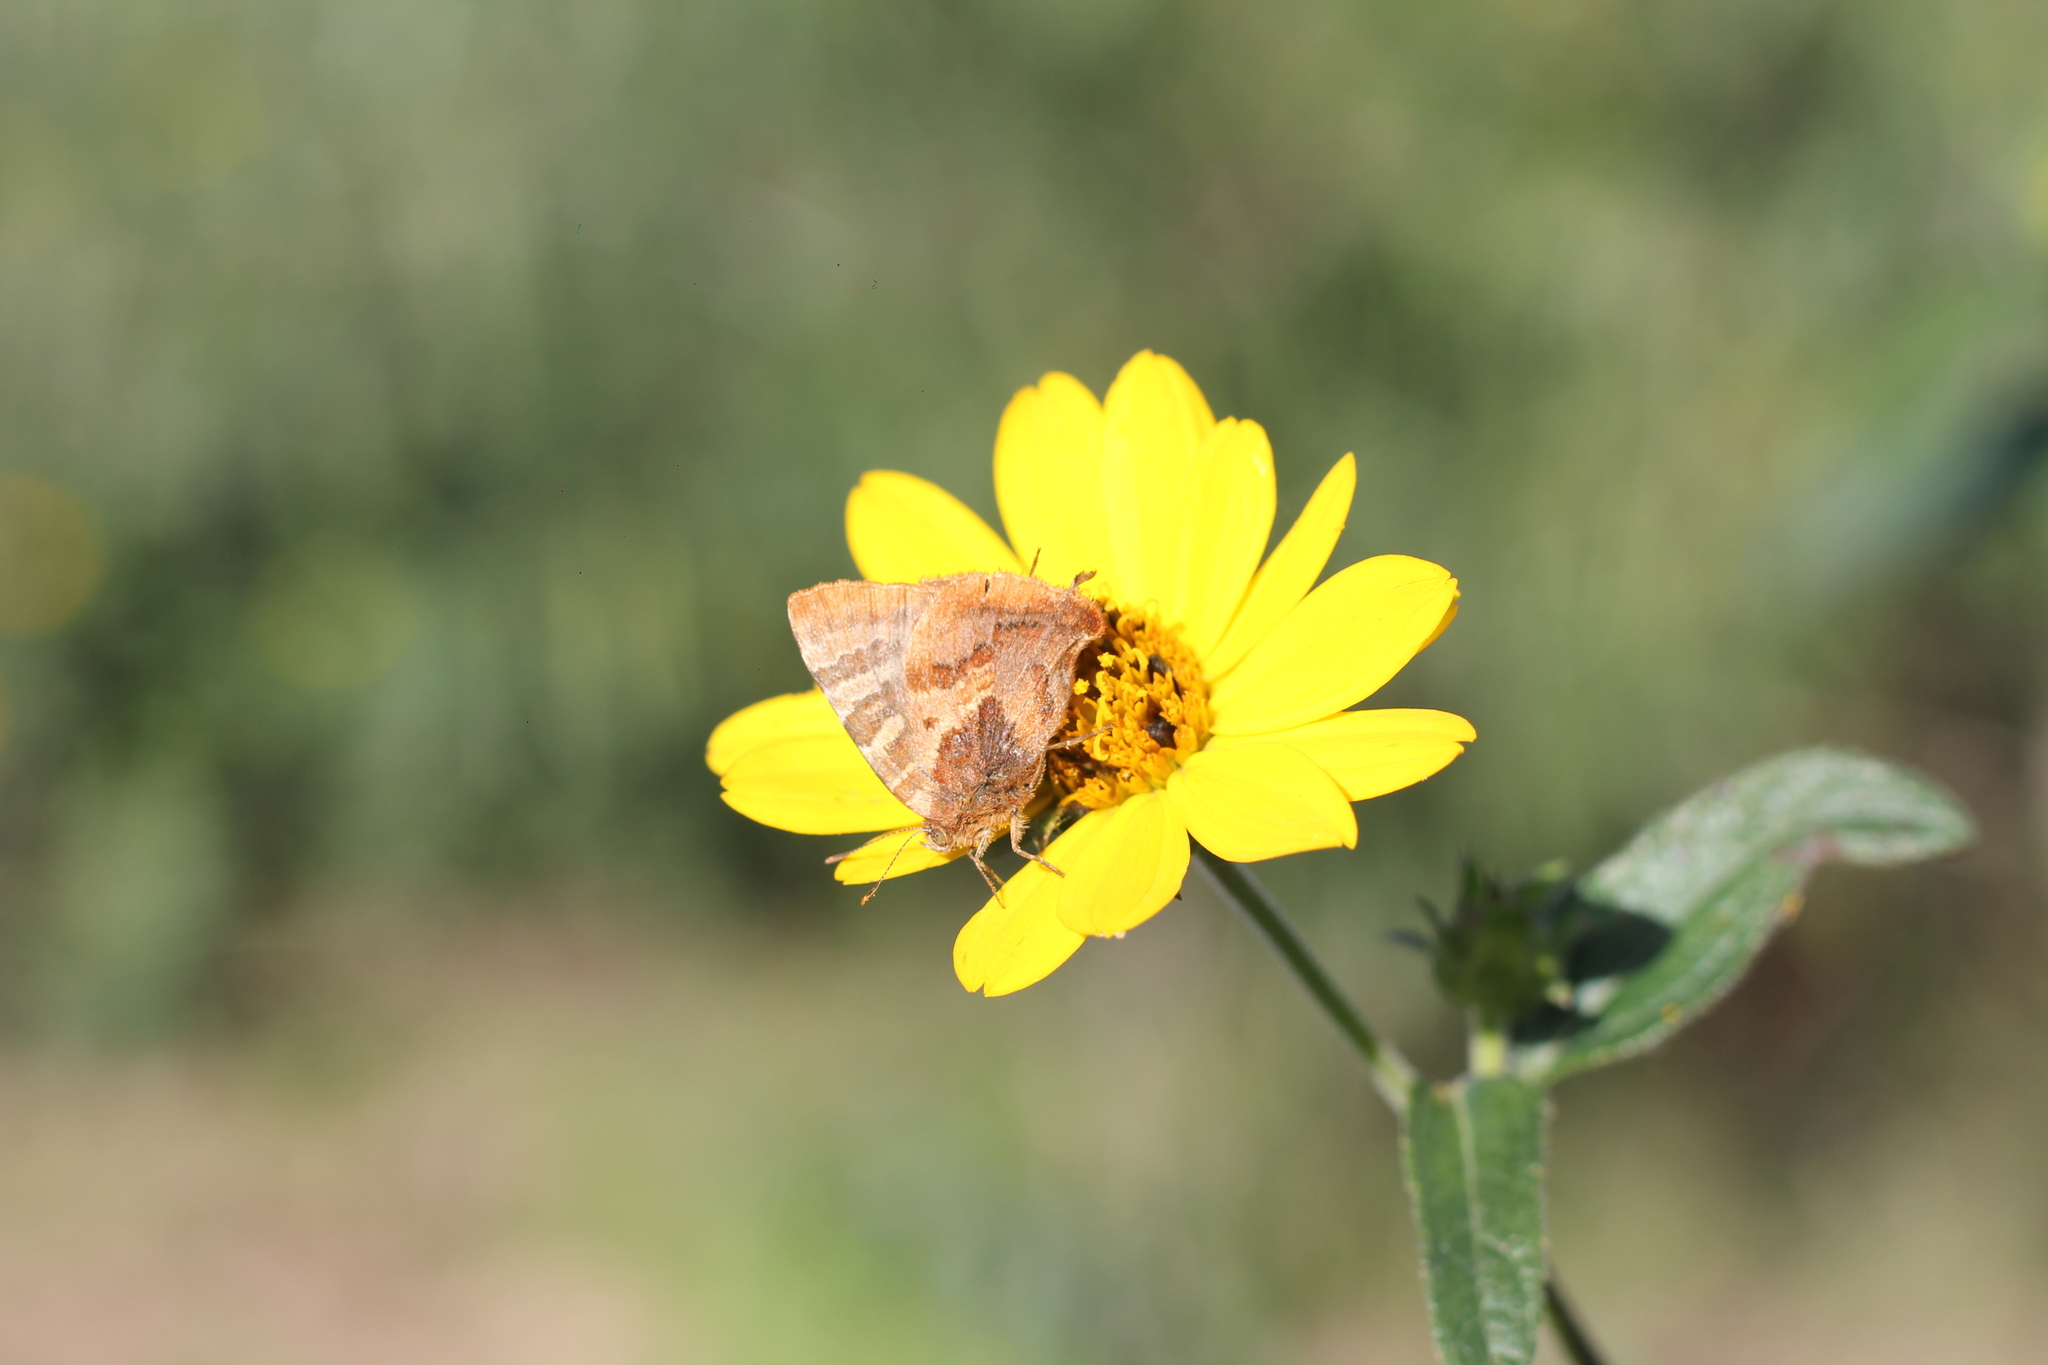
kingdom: Animalia
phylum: Arthropoda
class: Insecta
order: Lepidoptera
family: Lycaenidae
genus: Arawacus
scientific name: Arawacus ellida
